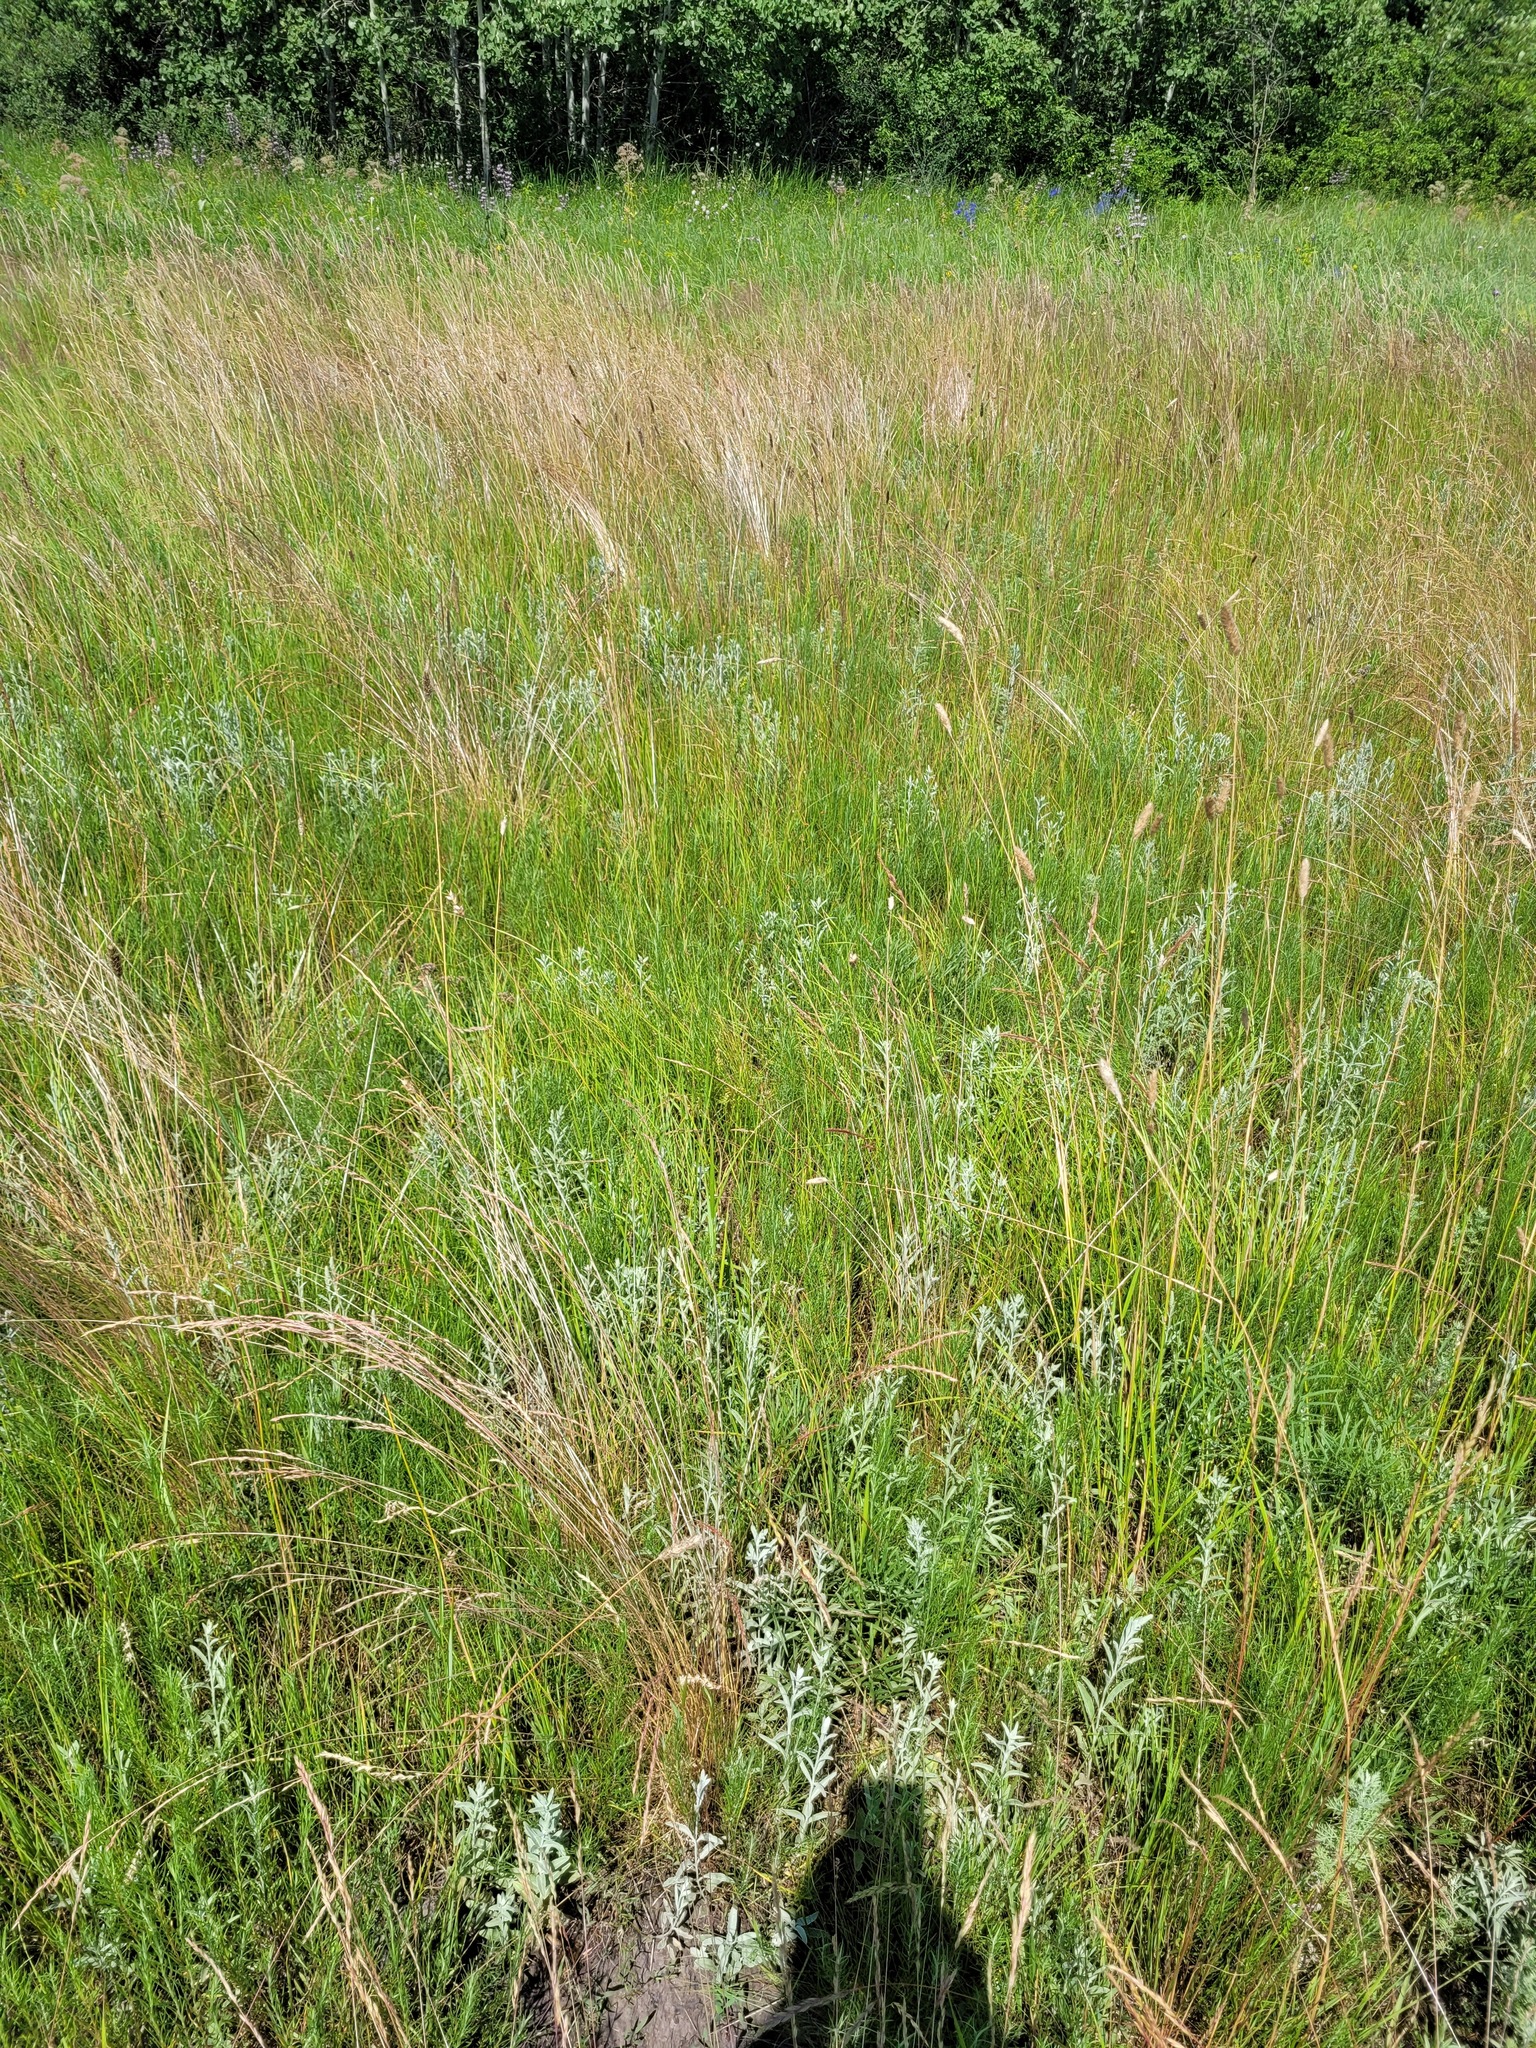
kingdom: Plantae
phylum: Tracheophyta
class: Magnoliopsida
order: Lamiales
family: Plantaginaceae
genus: Veronica
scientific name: Veronica incana
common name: Silver speedwell
